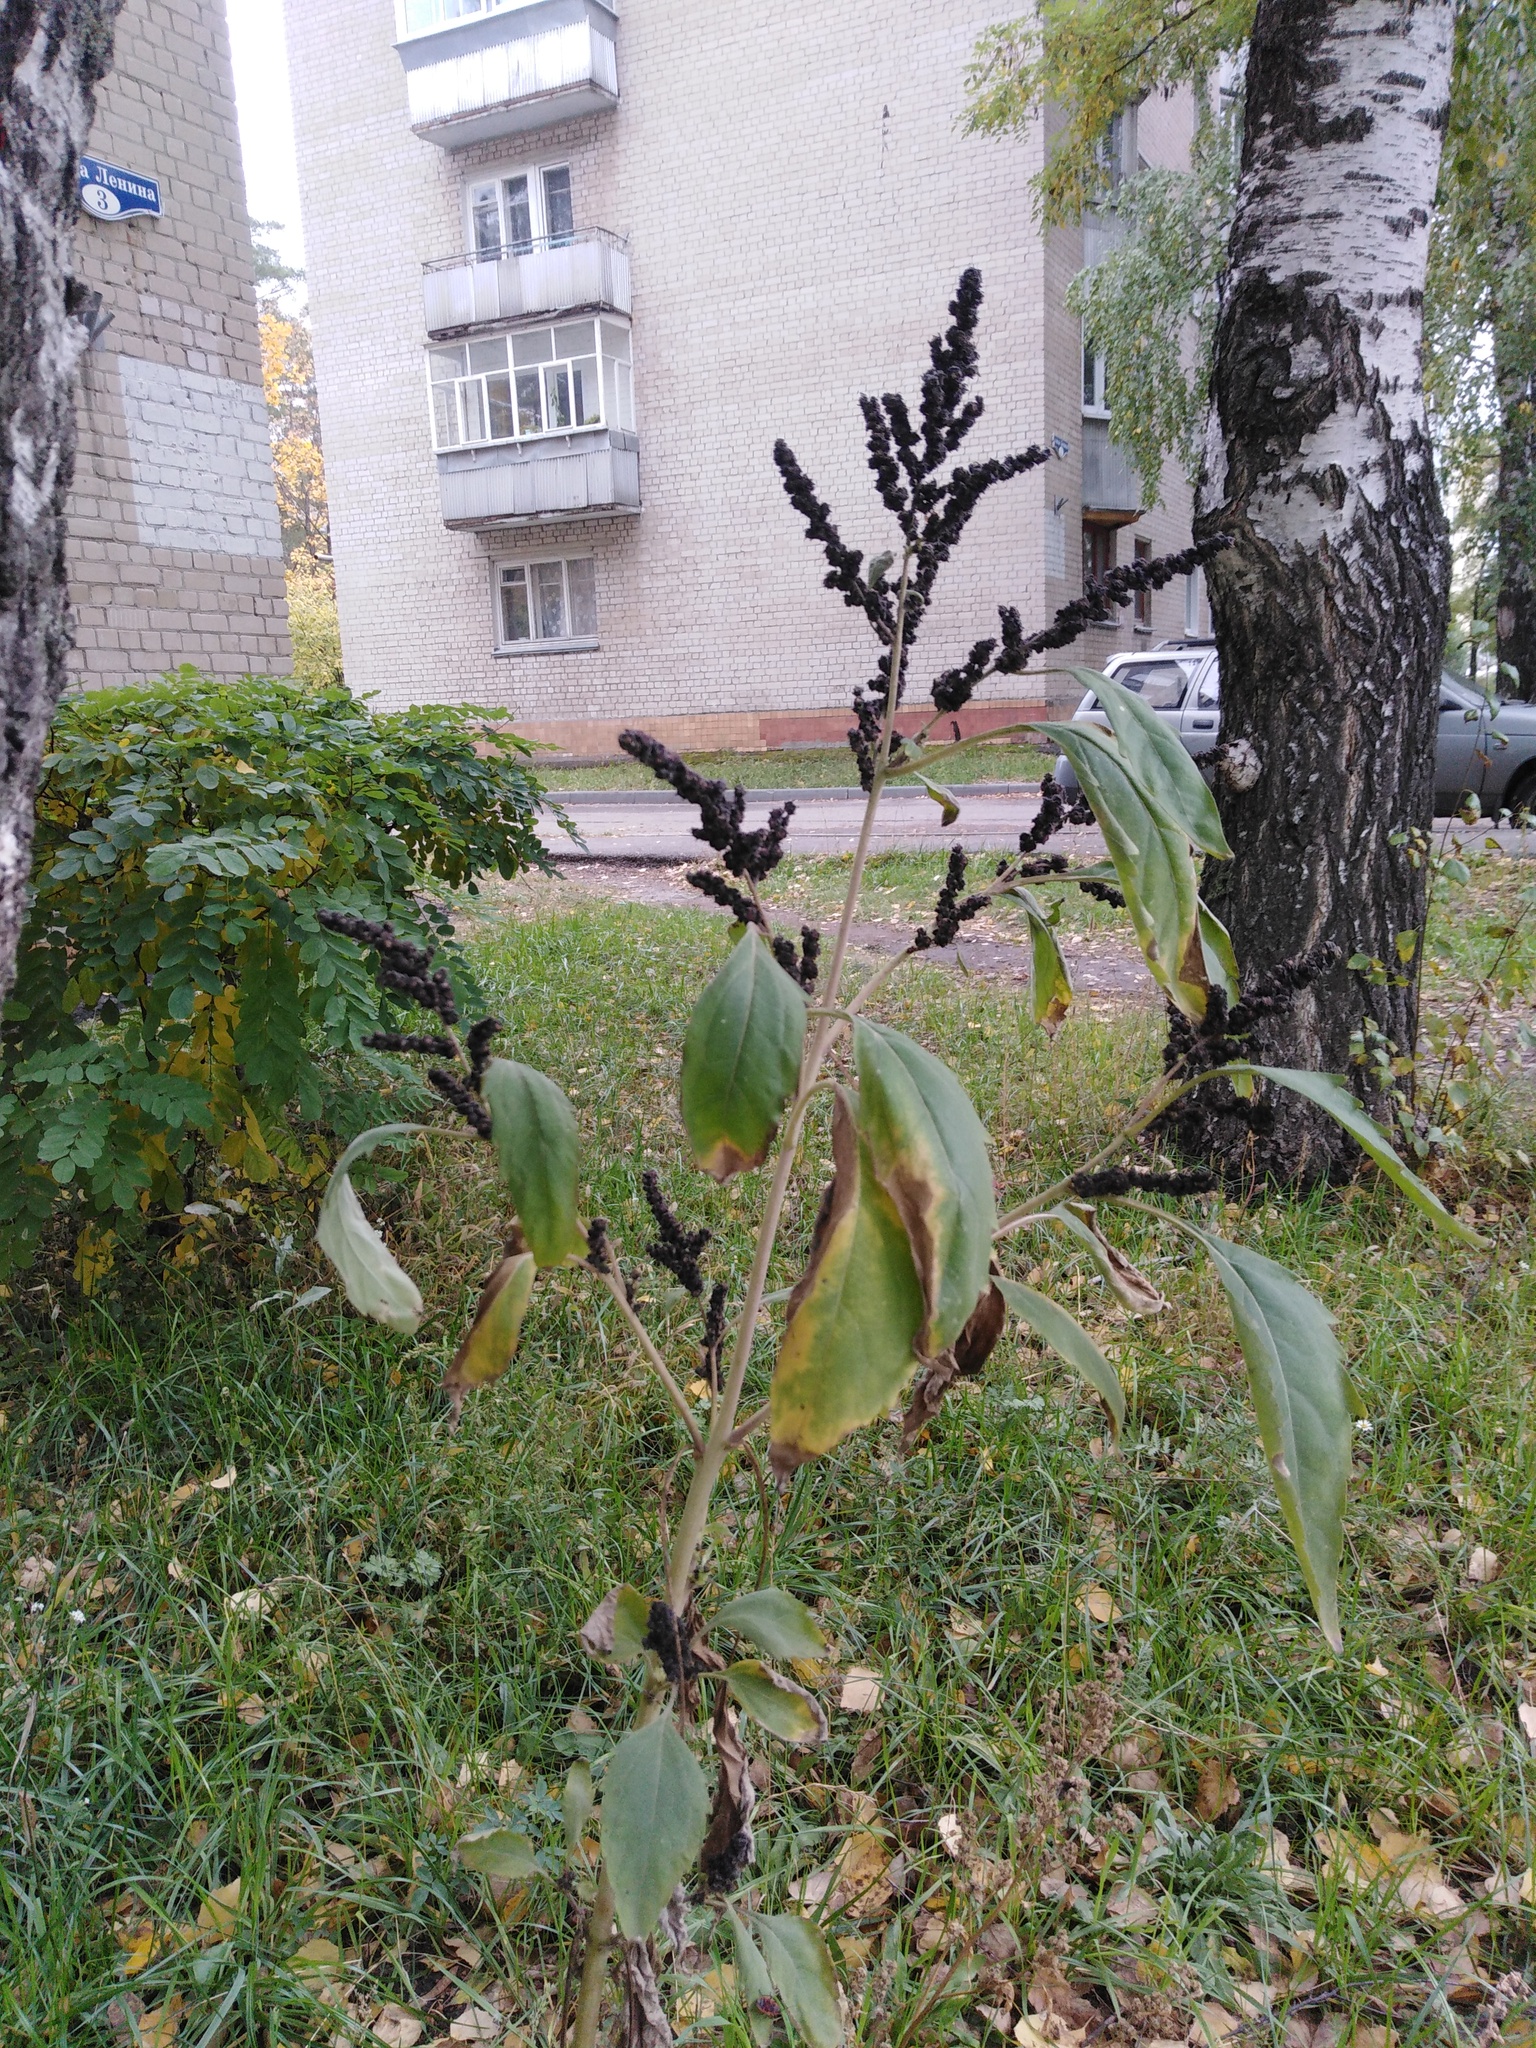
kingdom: Plantae
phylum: Tracheophyta
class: Magnoliopsida
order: Asterales
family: Asteraceae
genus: Cyclachaena
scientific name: Cyclachaena xanthiifolia
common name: Giant sumpweed
